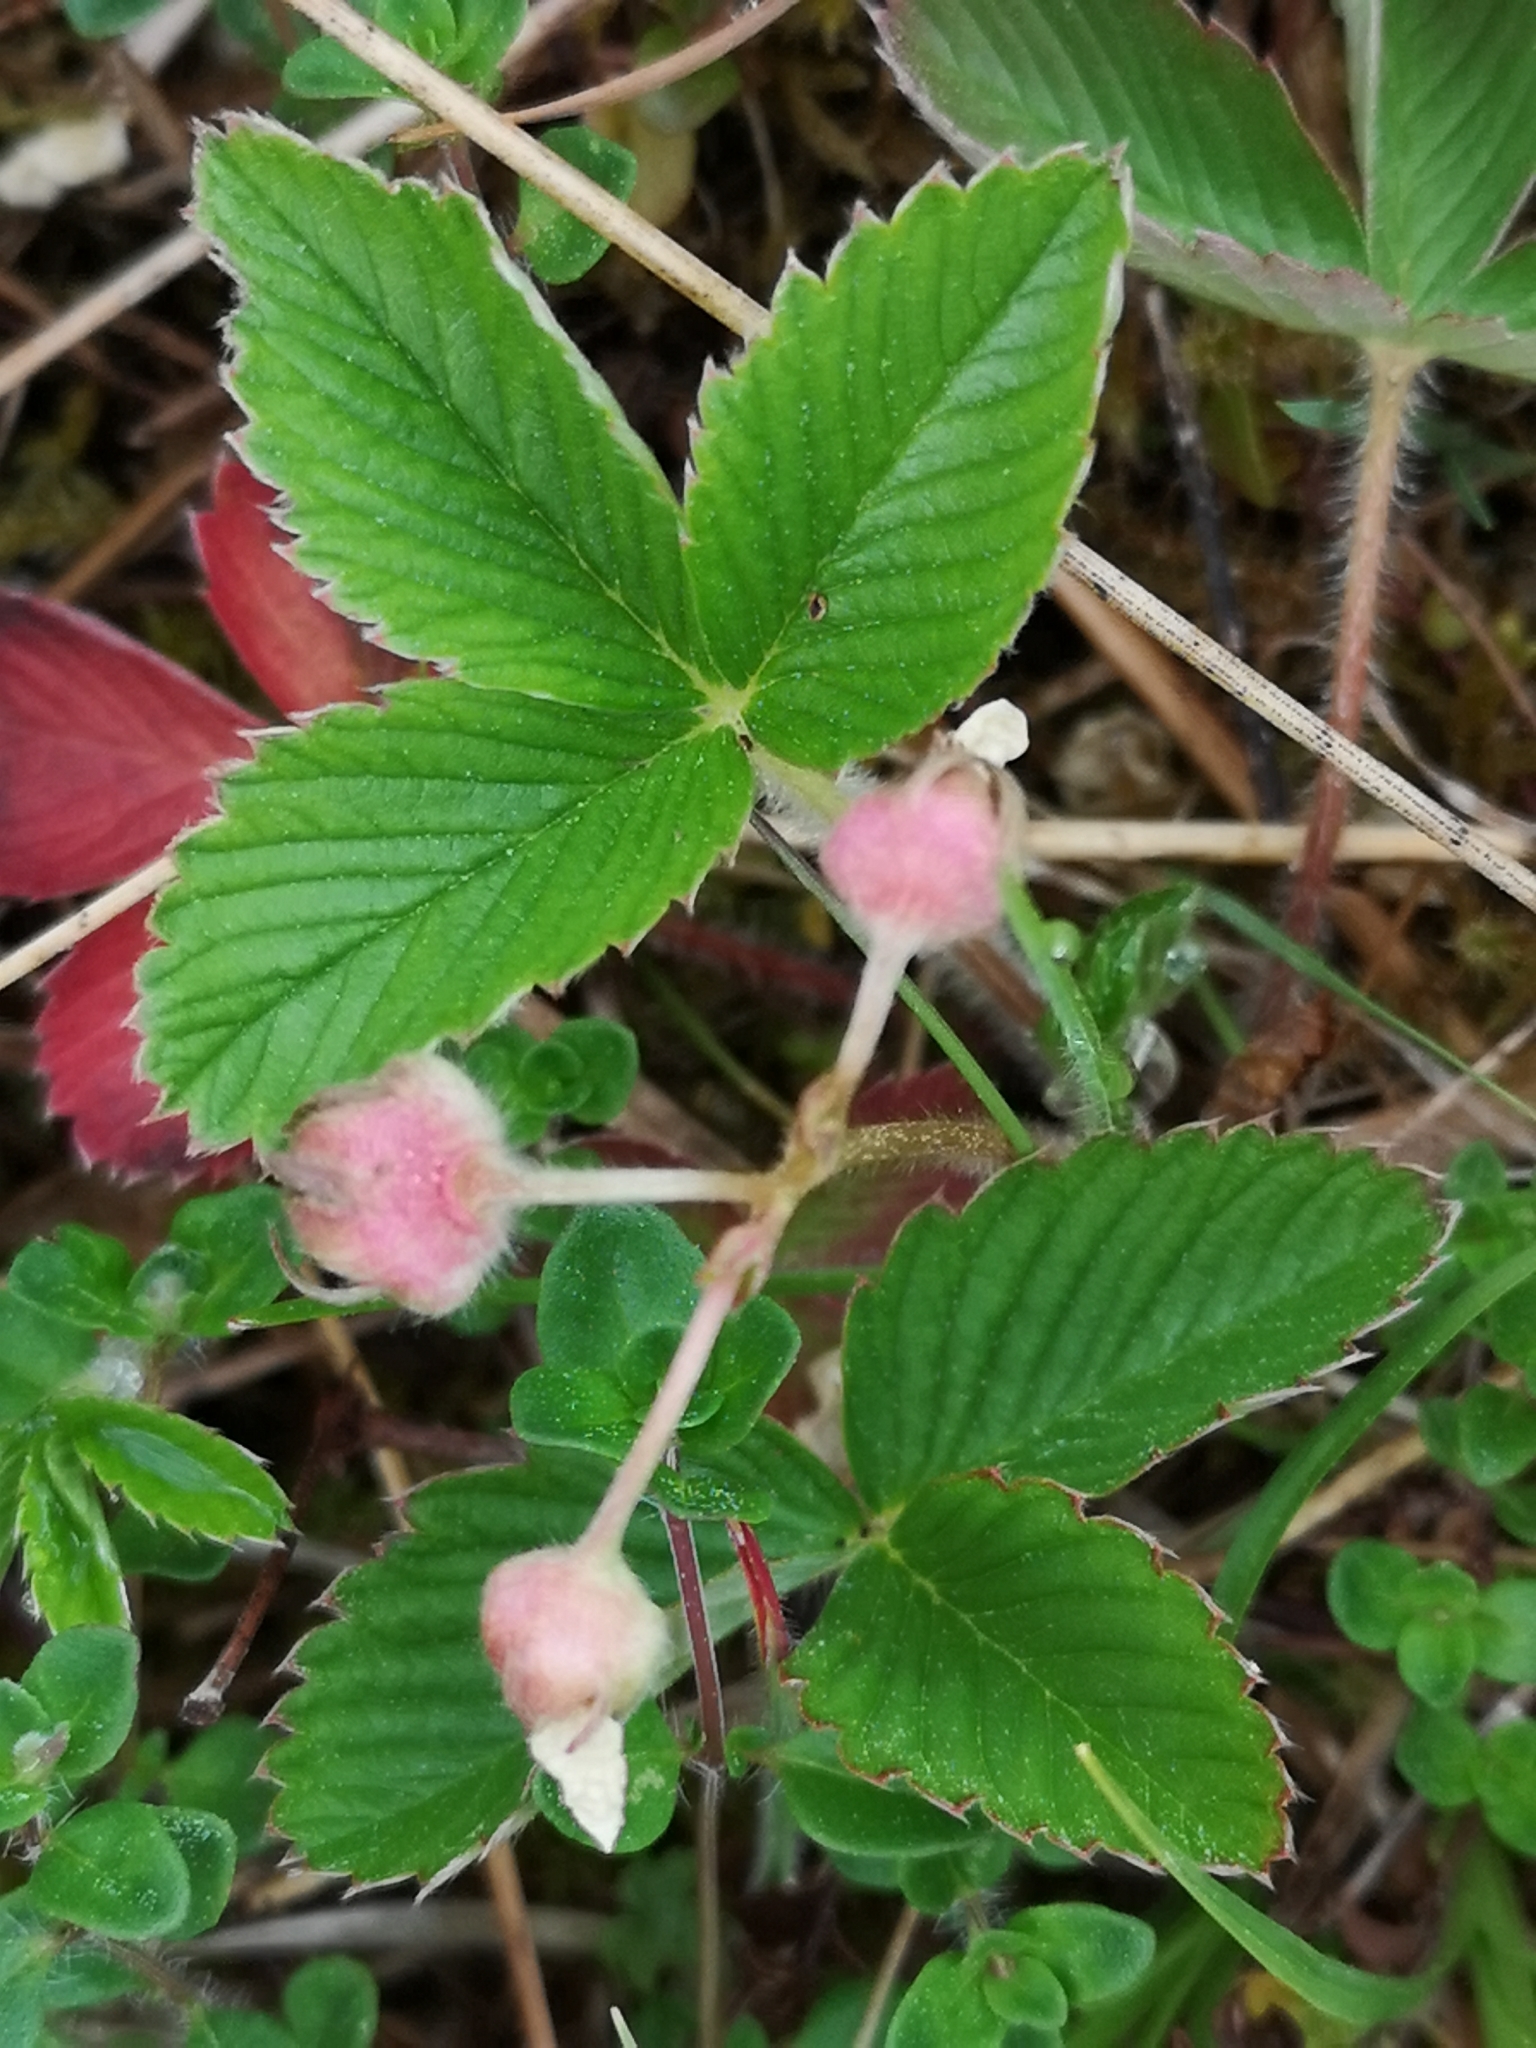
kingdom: Plantae
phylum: Tracheophyta
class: Magnoliopsida
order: Rosales
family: Rosaceae
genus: Fragaria
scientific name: Fragaria viridis
